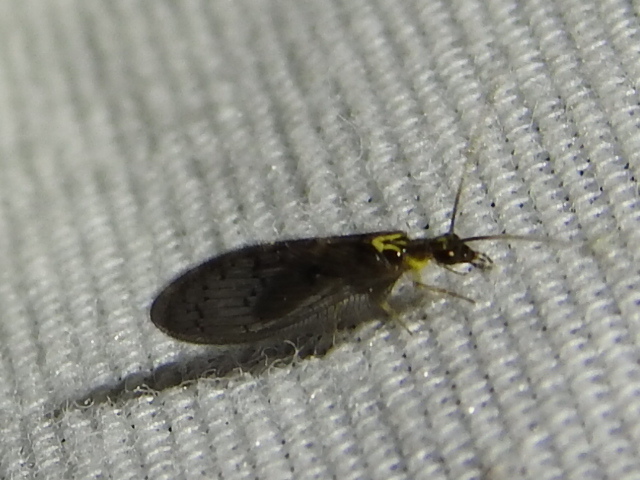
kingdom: Animalia
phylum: Arthropoda
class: Insecta
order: Neuroptera
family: Hemerobiidae
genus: Sympherobius
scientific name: Sympherobius occidentalis
